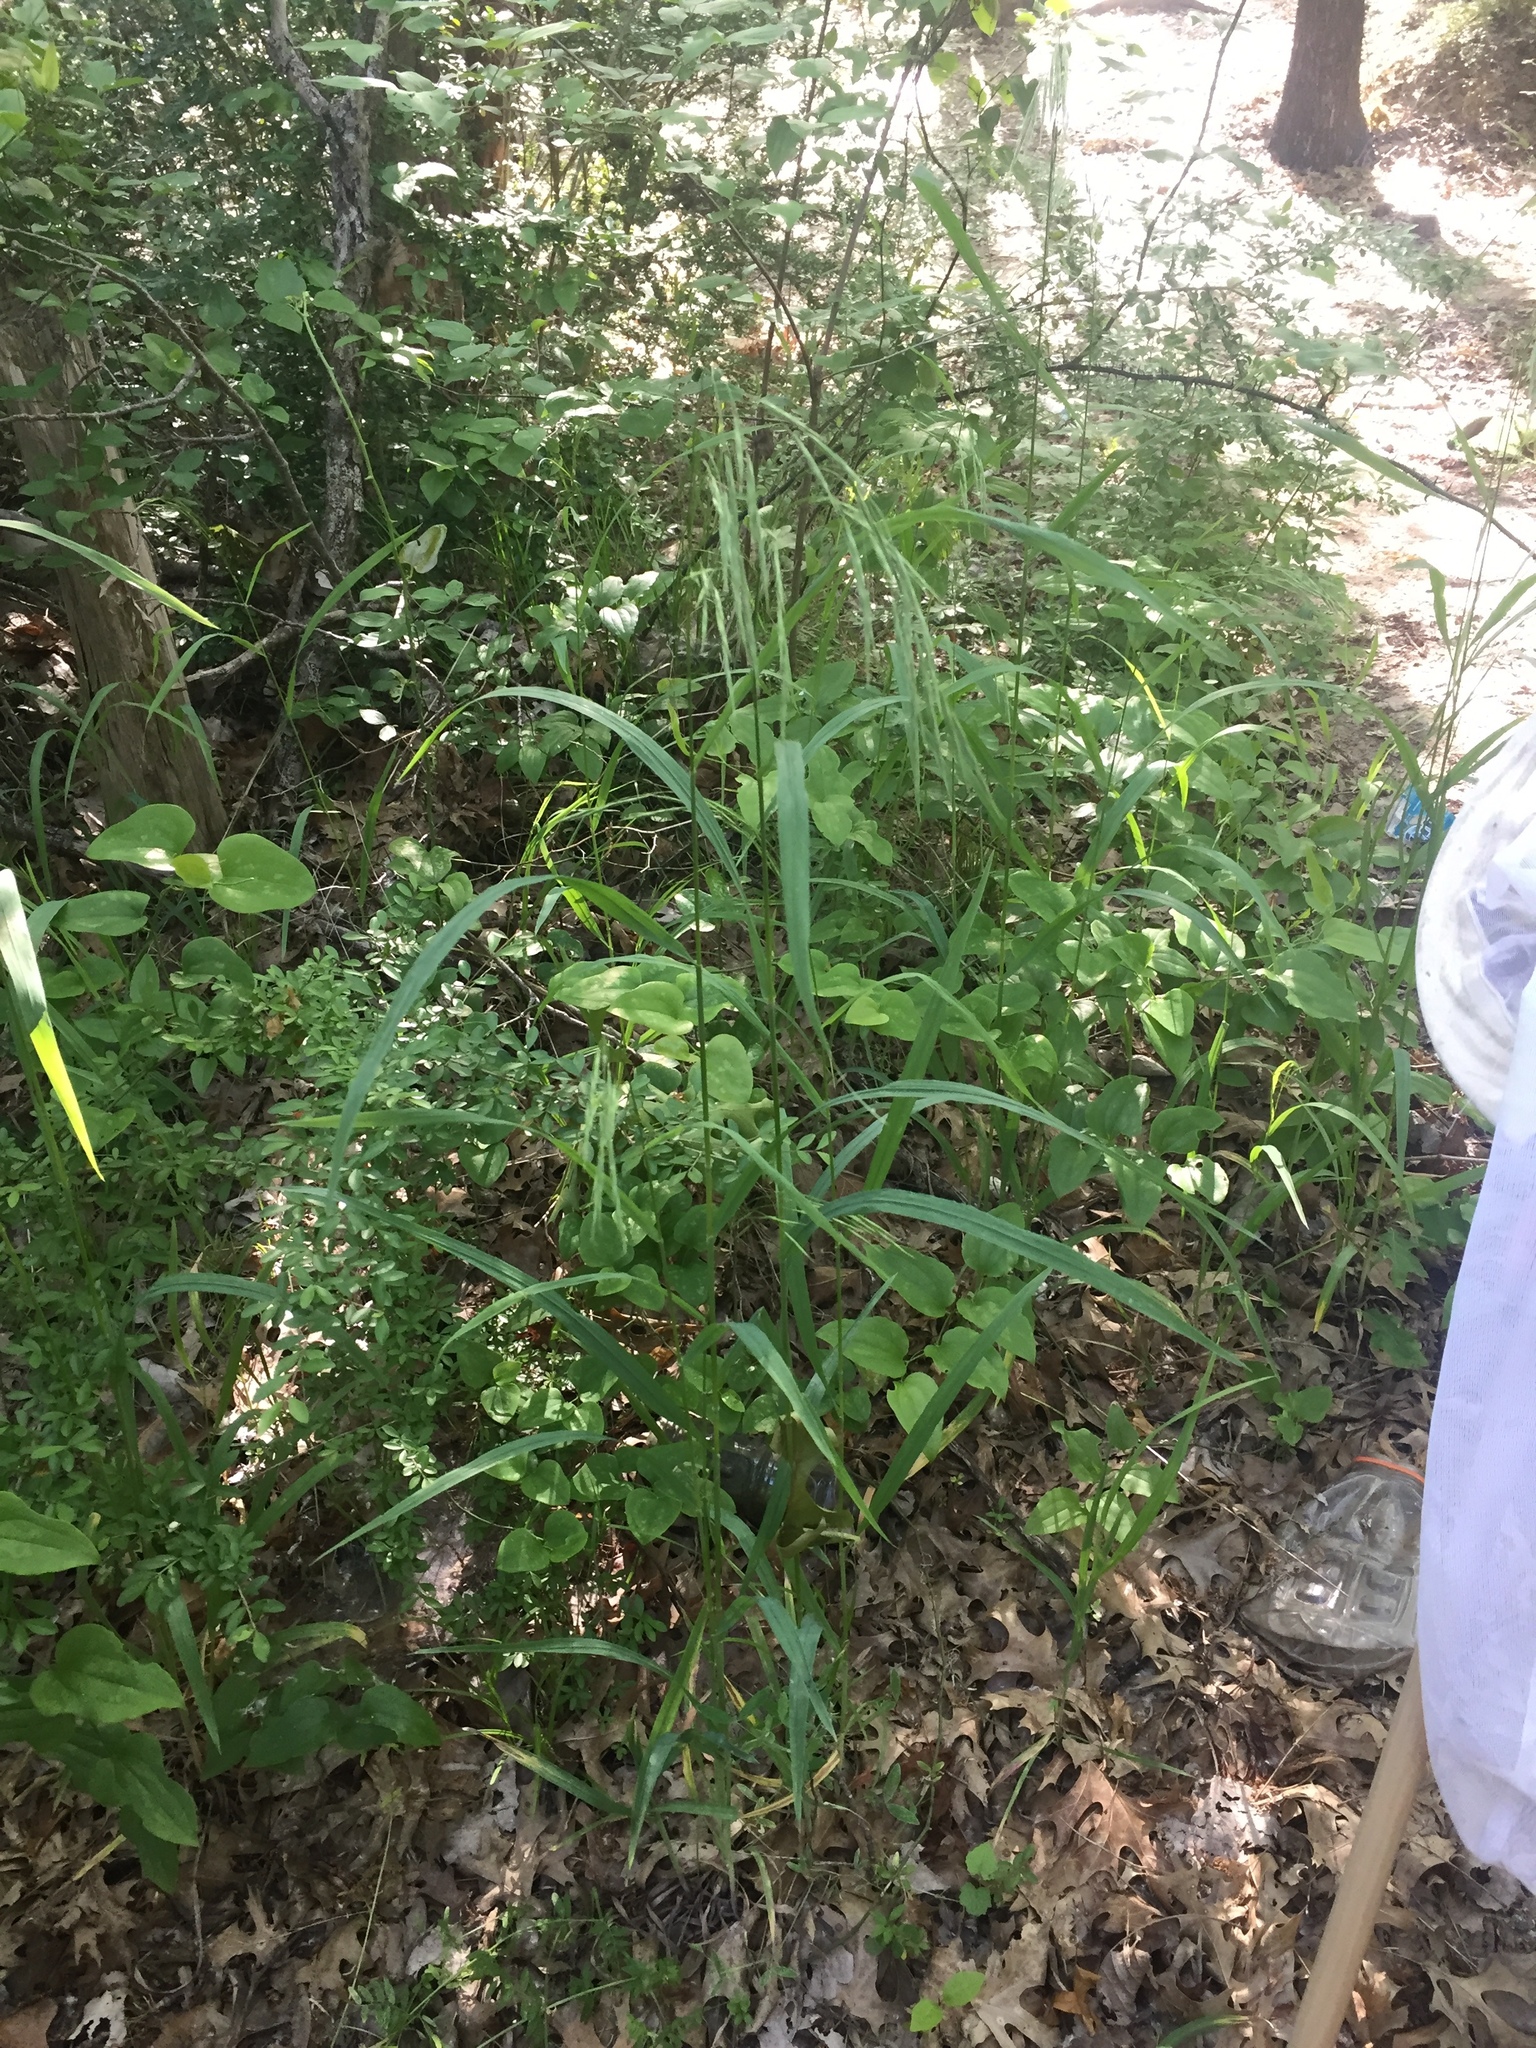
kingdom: Plantae
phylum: Tracheophyta
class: Liliopsida
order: Poales
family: Poaceae
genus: Bromus
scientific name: Bromus pubescens
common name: Hairy wood brome grass
